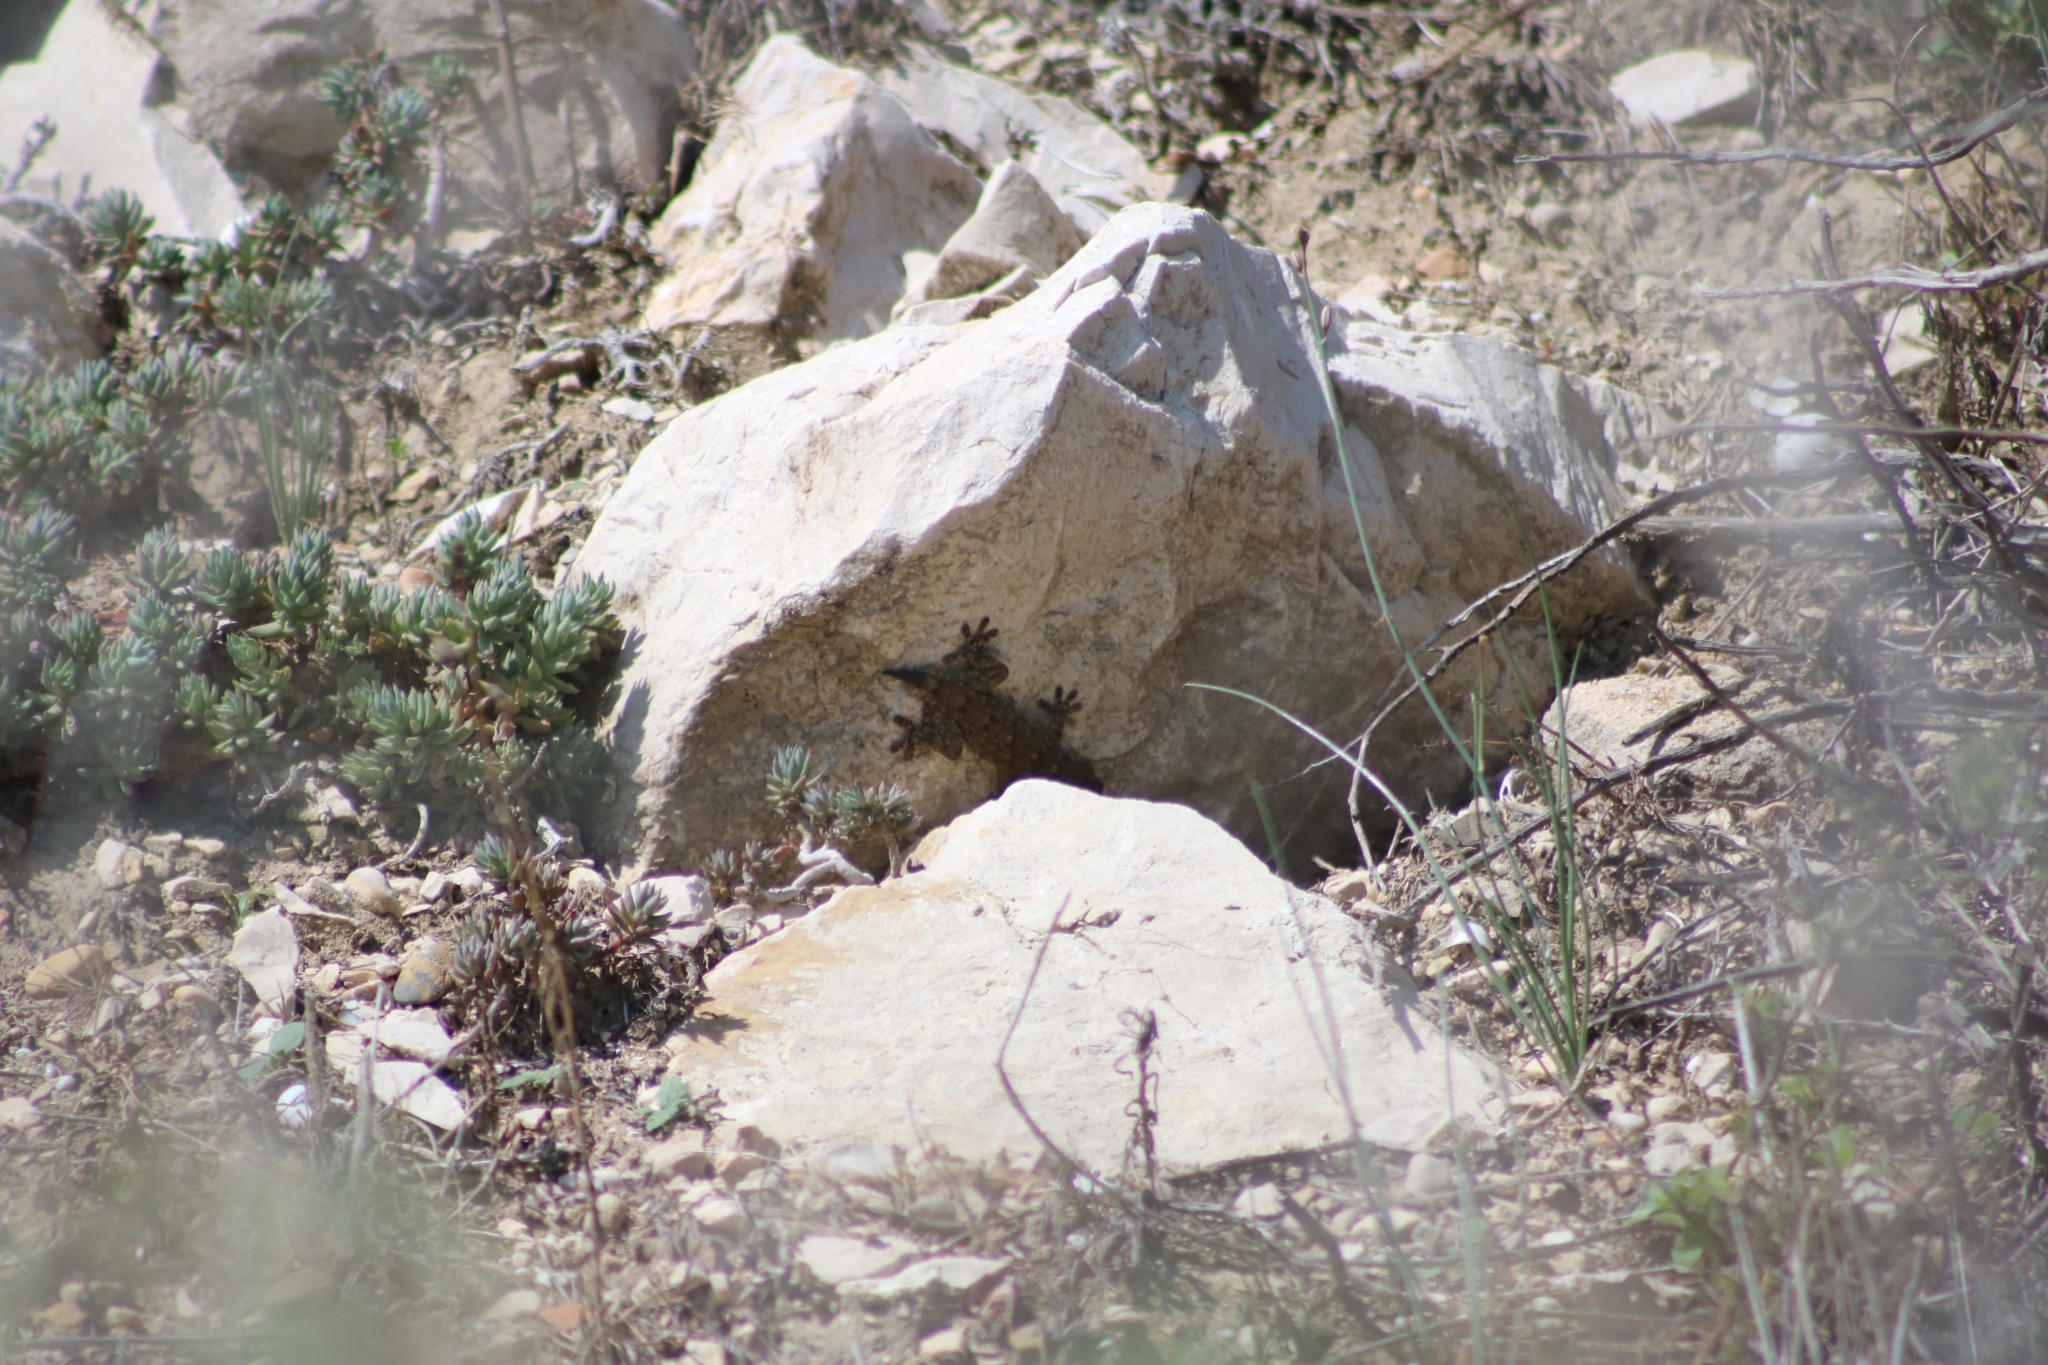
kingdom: Animalia
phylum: Chordata
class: Squamata
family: Phyllodactylidae
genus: Tarentola
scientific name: Tarentola mauritanica
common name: Moorish gecko
